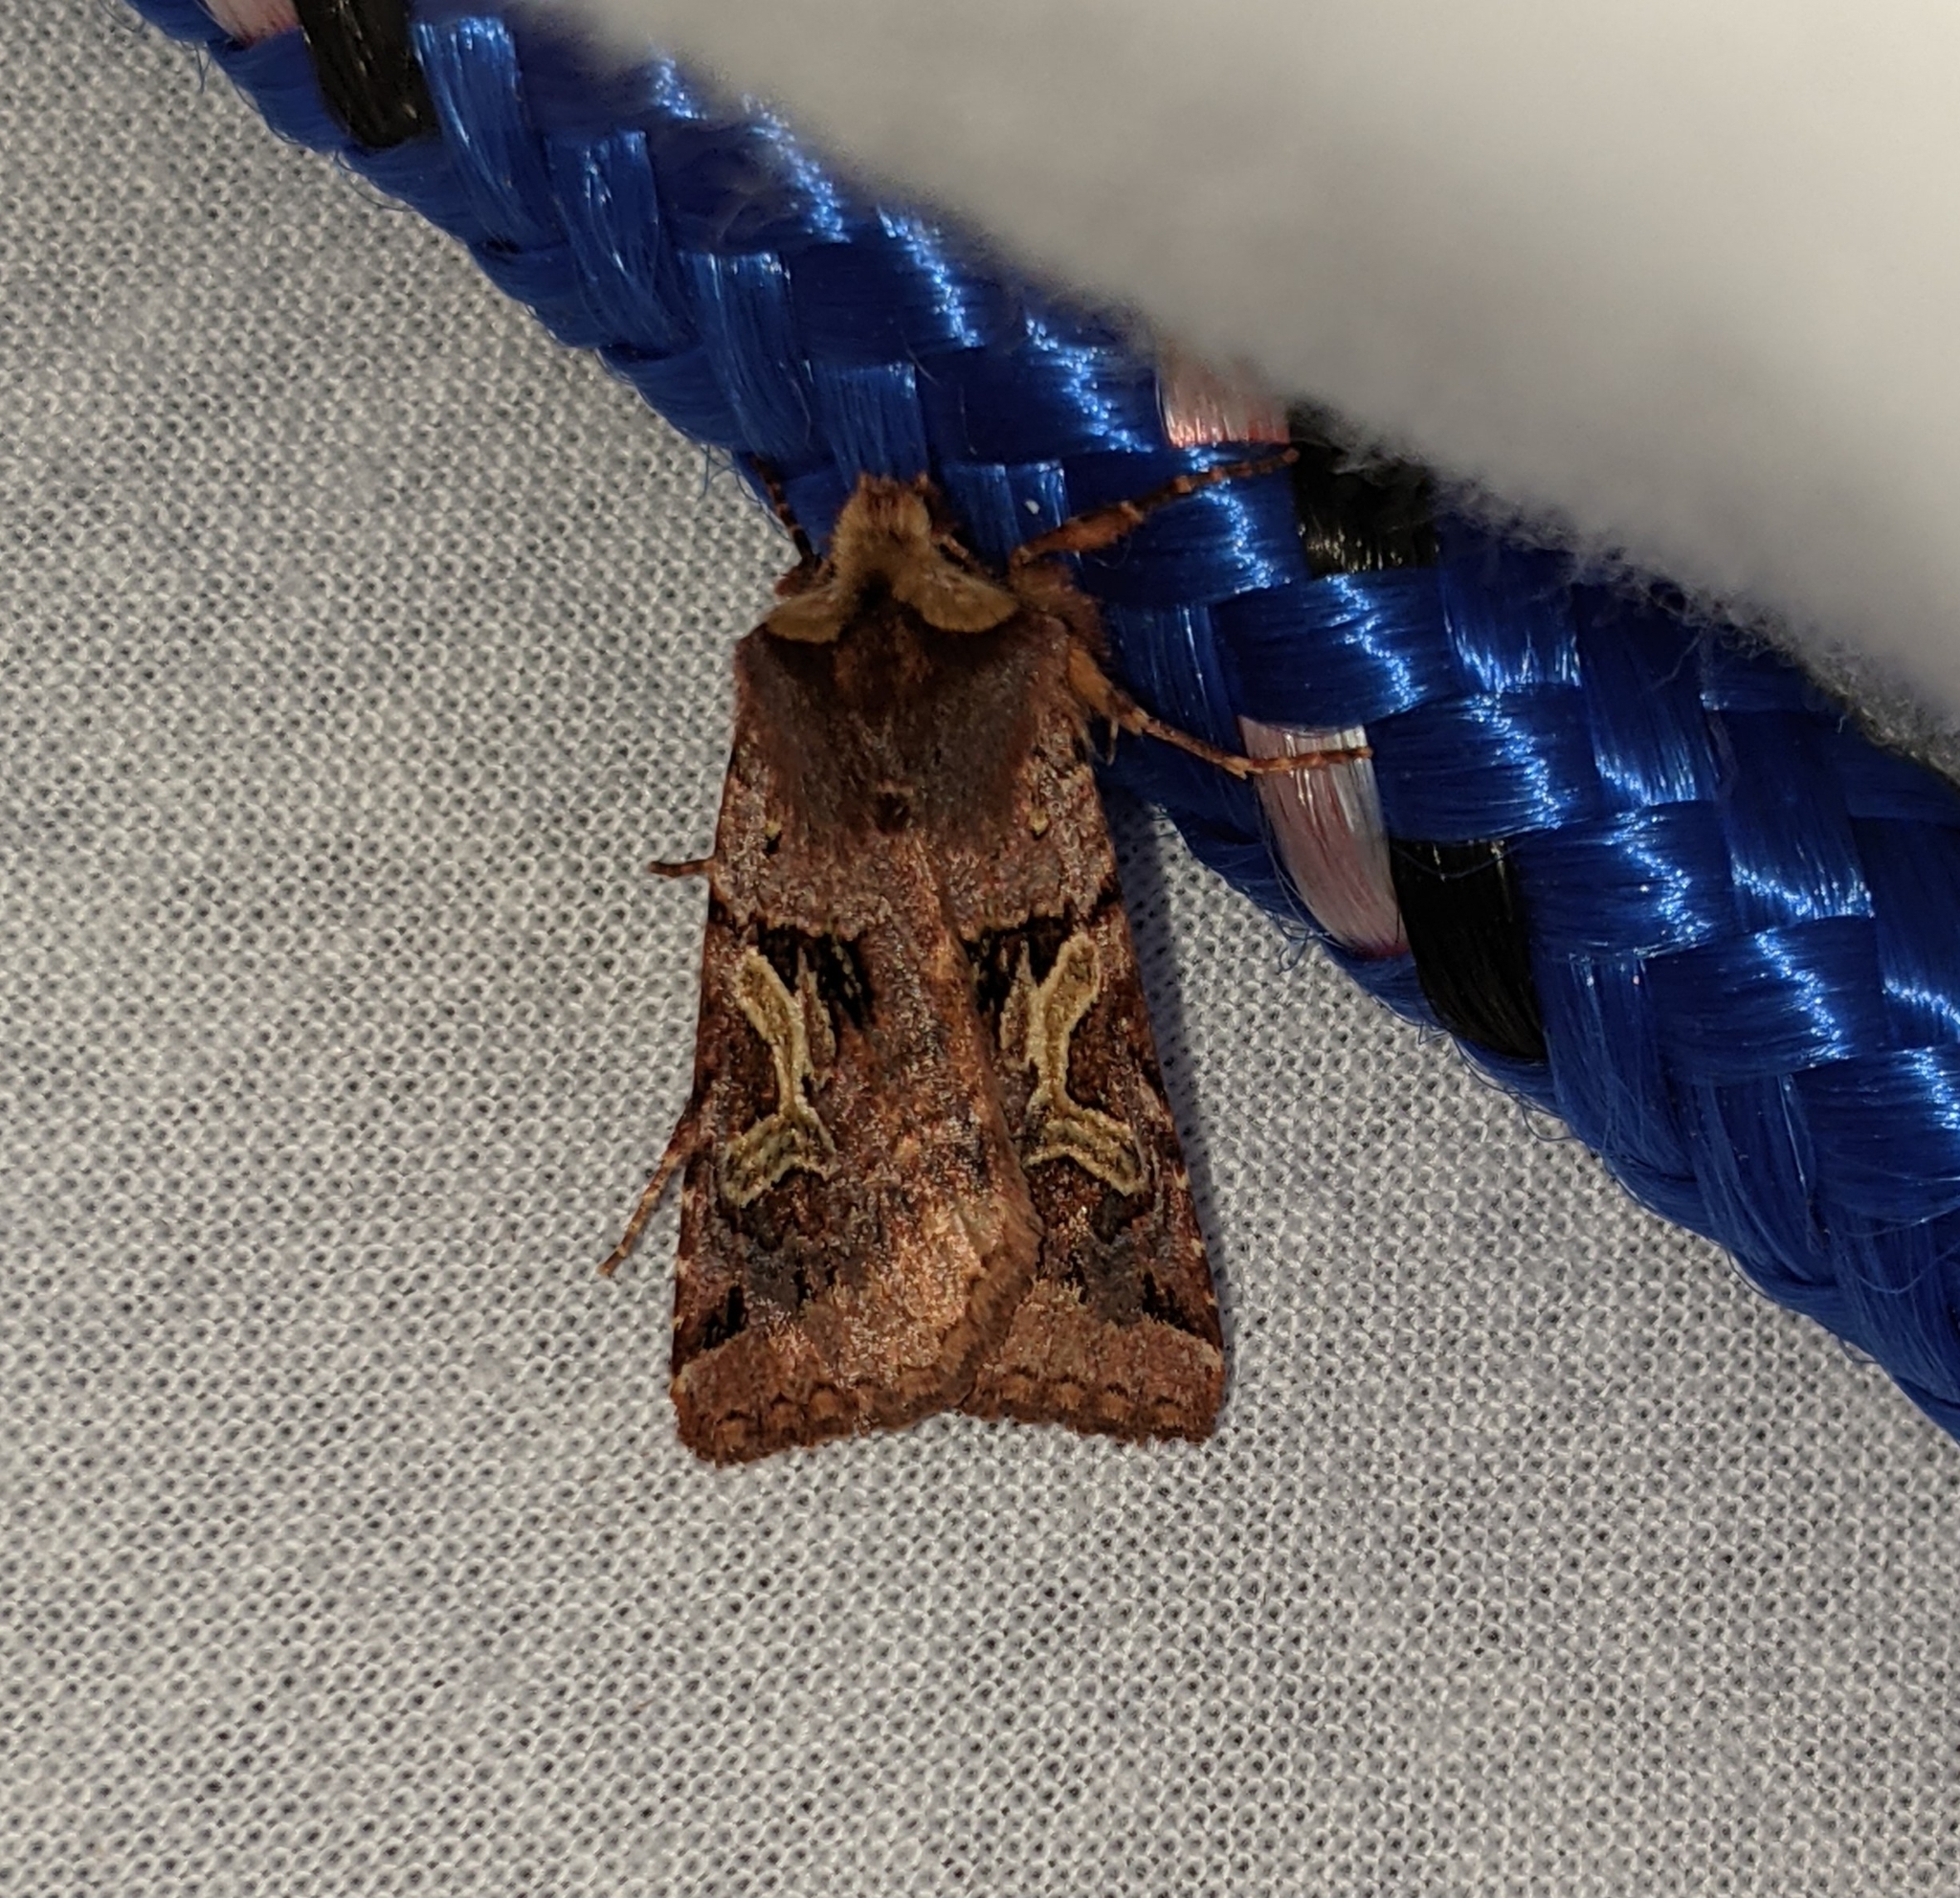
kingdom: Animalia
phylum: Arthropoda
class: Insecta
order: Lepidoptera
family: Noctuidae
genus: Cerastis
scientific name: Cerastis enigmatica
